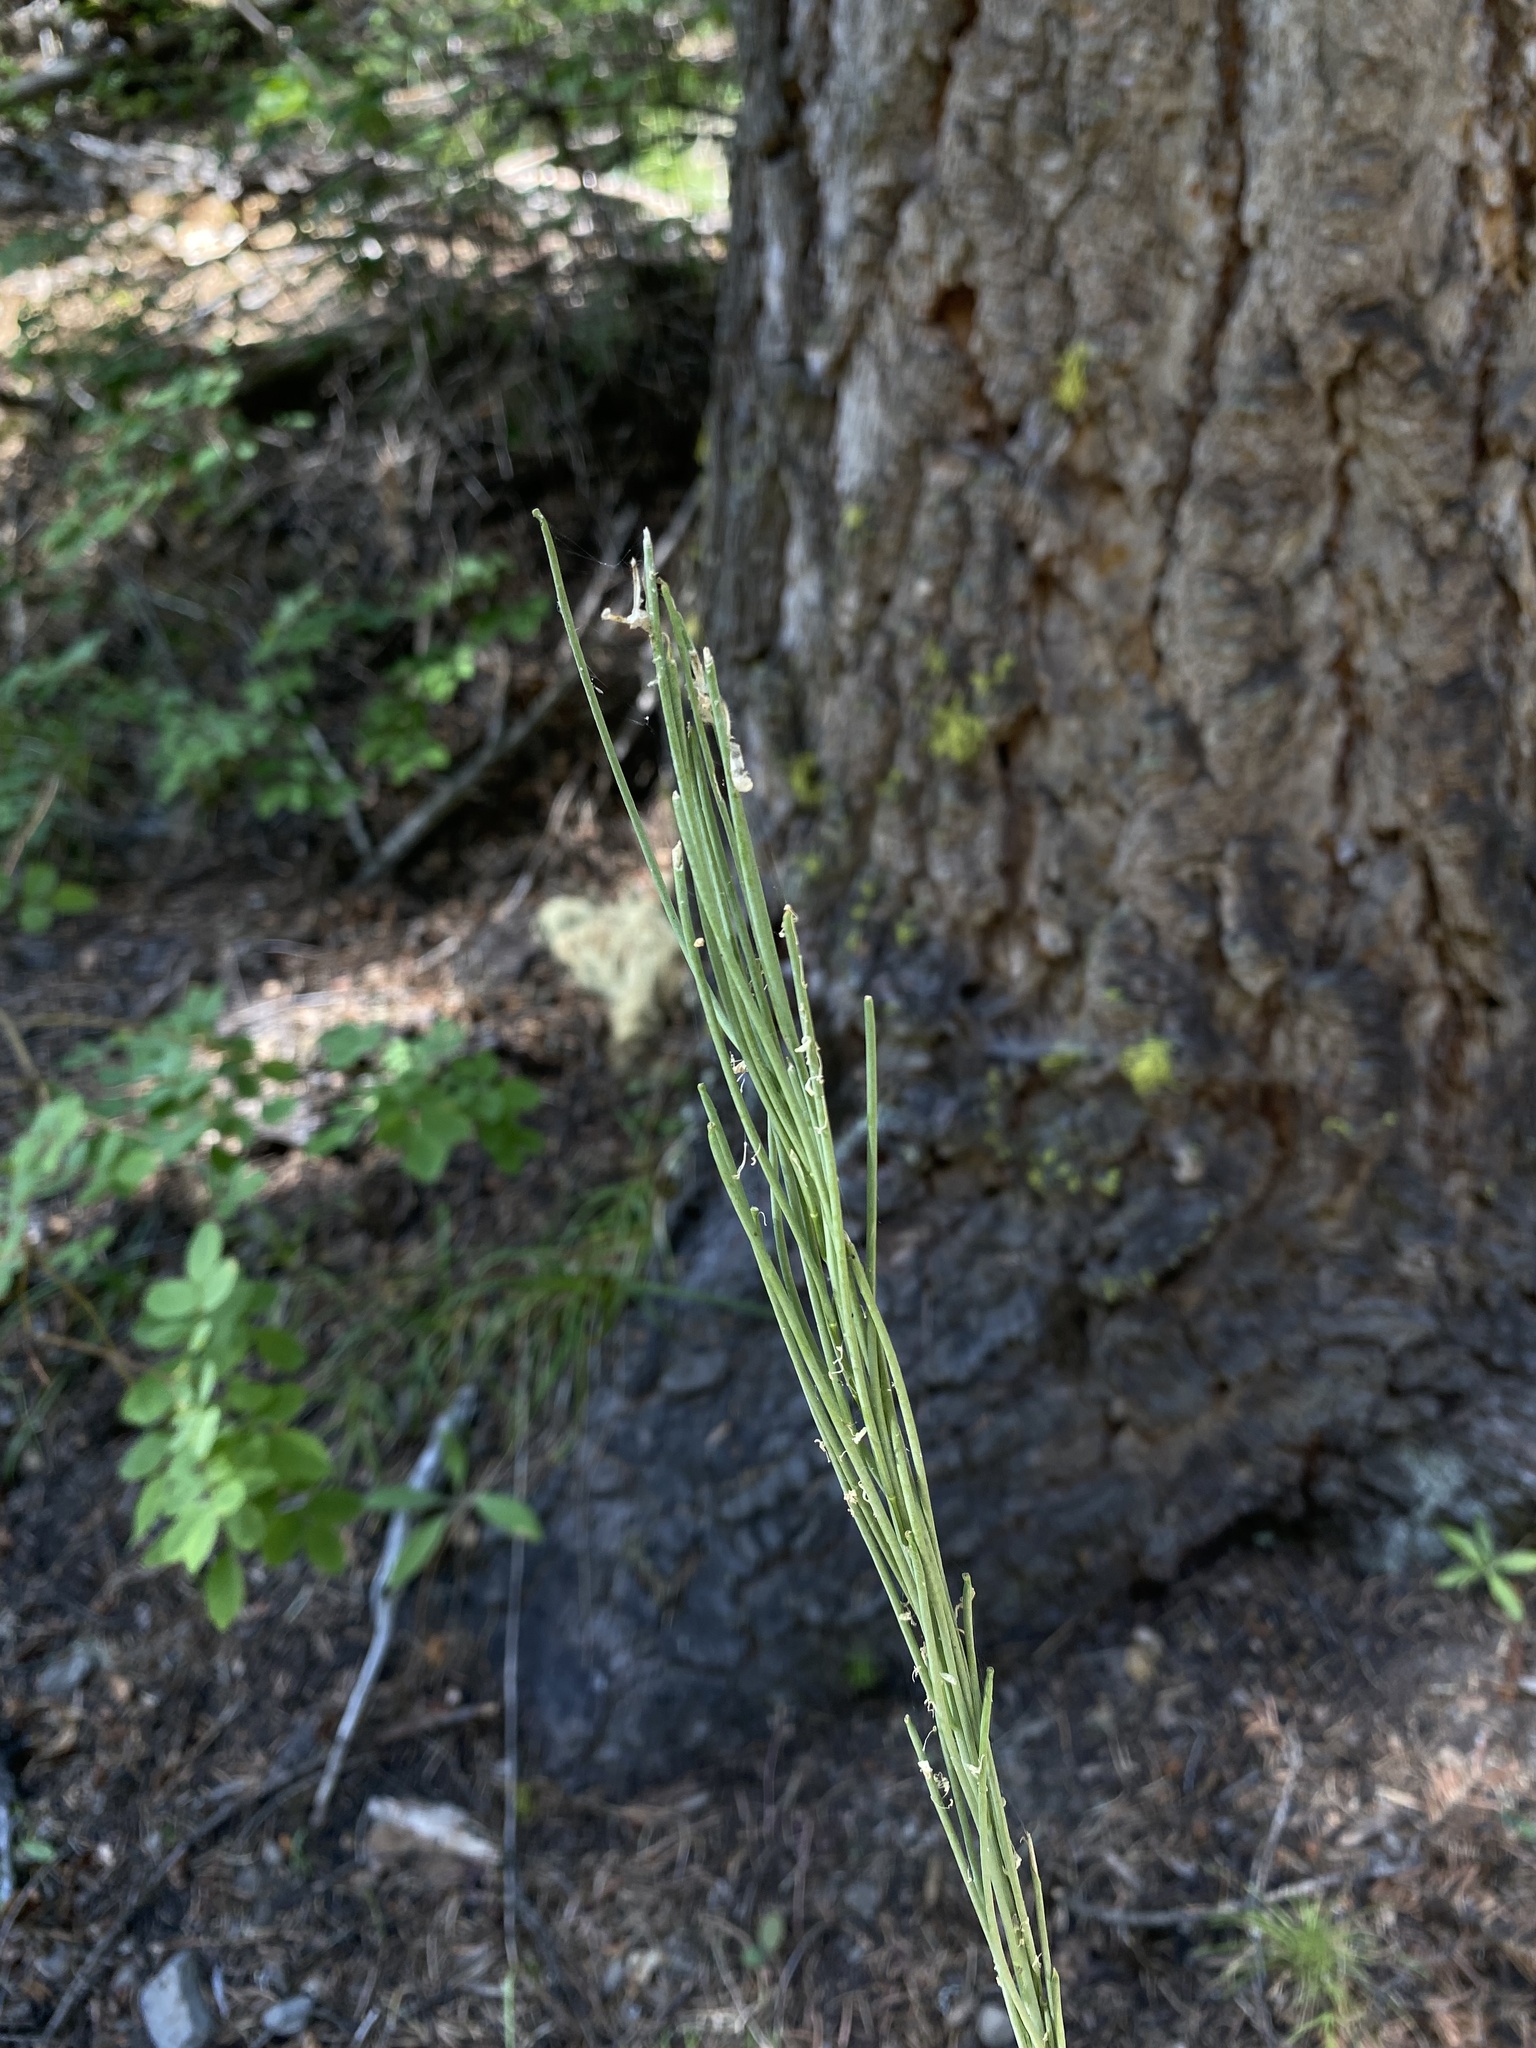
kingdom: Plantae
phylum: Tracheophyta
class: Magnoliopsida
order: Brassicales
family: Brassicaceae
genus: Turritis
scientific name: Turritis glabra
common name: Tower rockcress
